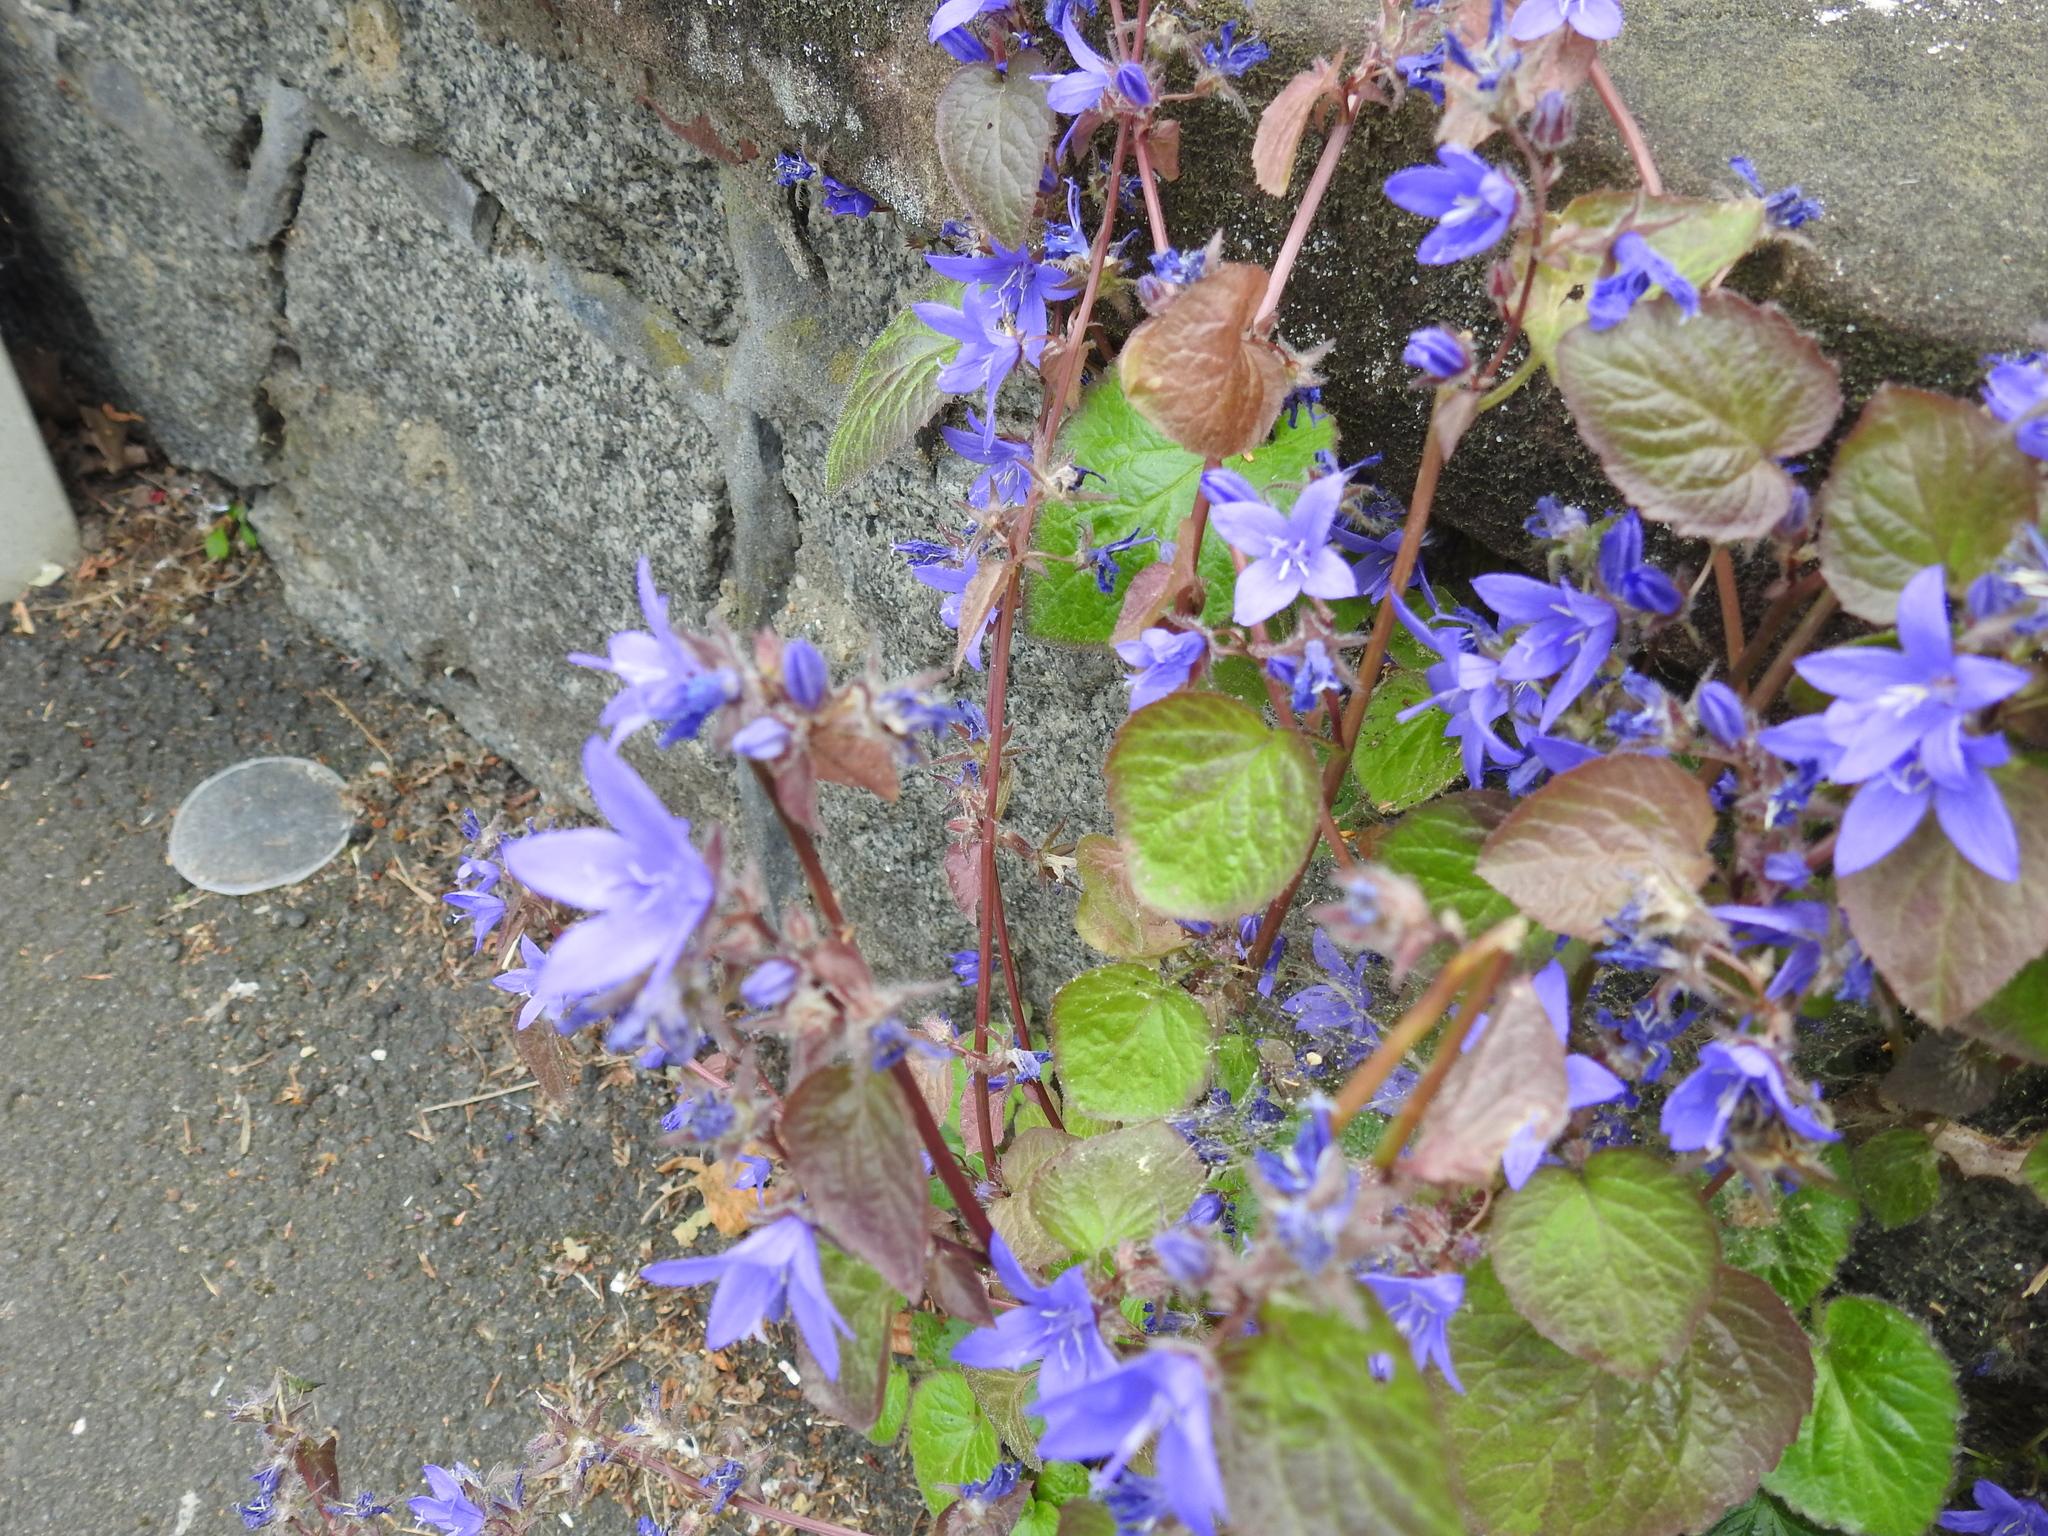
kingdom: Plantae
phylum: Tracheophyta
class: Magnoliopsida
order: Asterales
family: Campanulaceae
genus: Campanula
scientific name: Campanula poscharskyana
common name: Trailing bellflower
